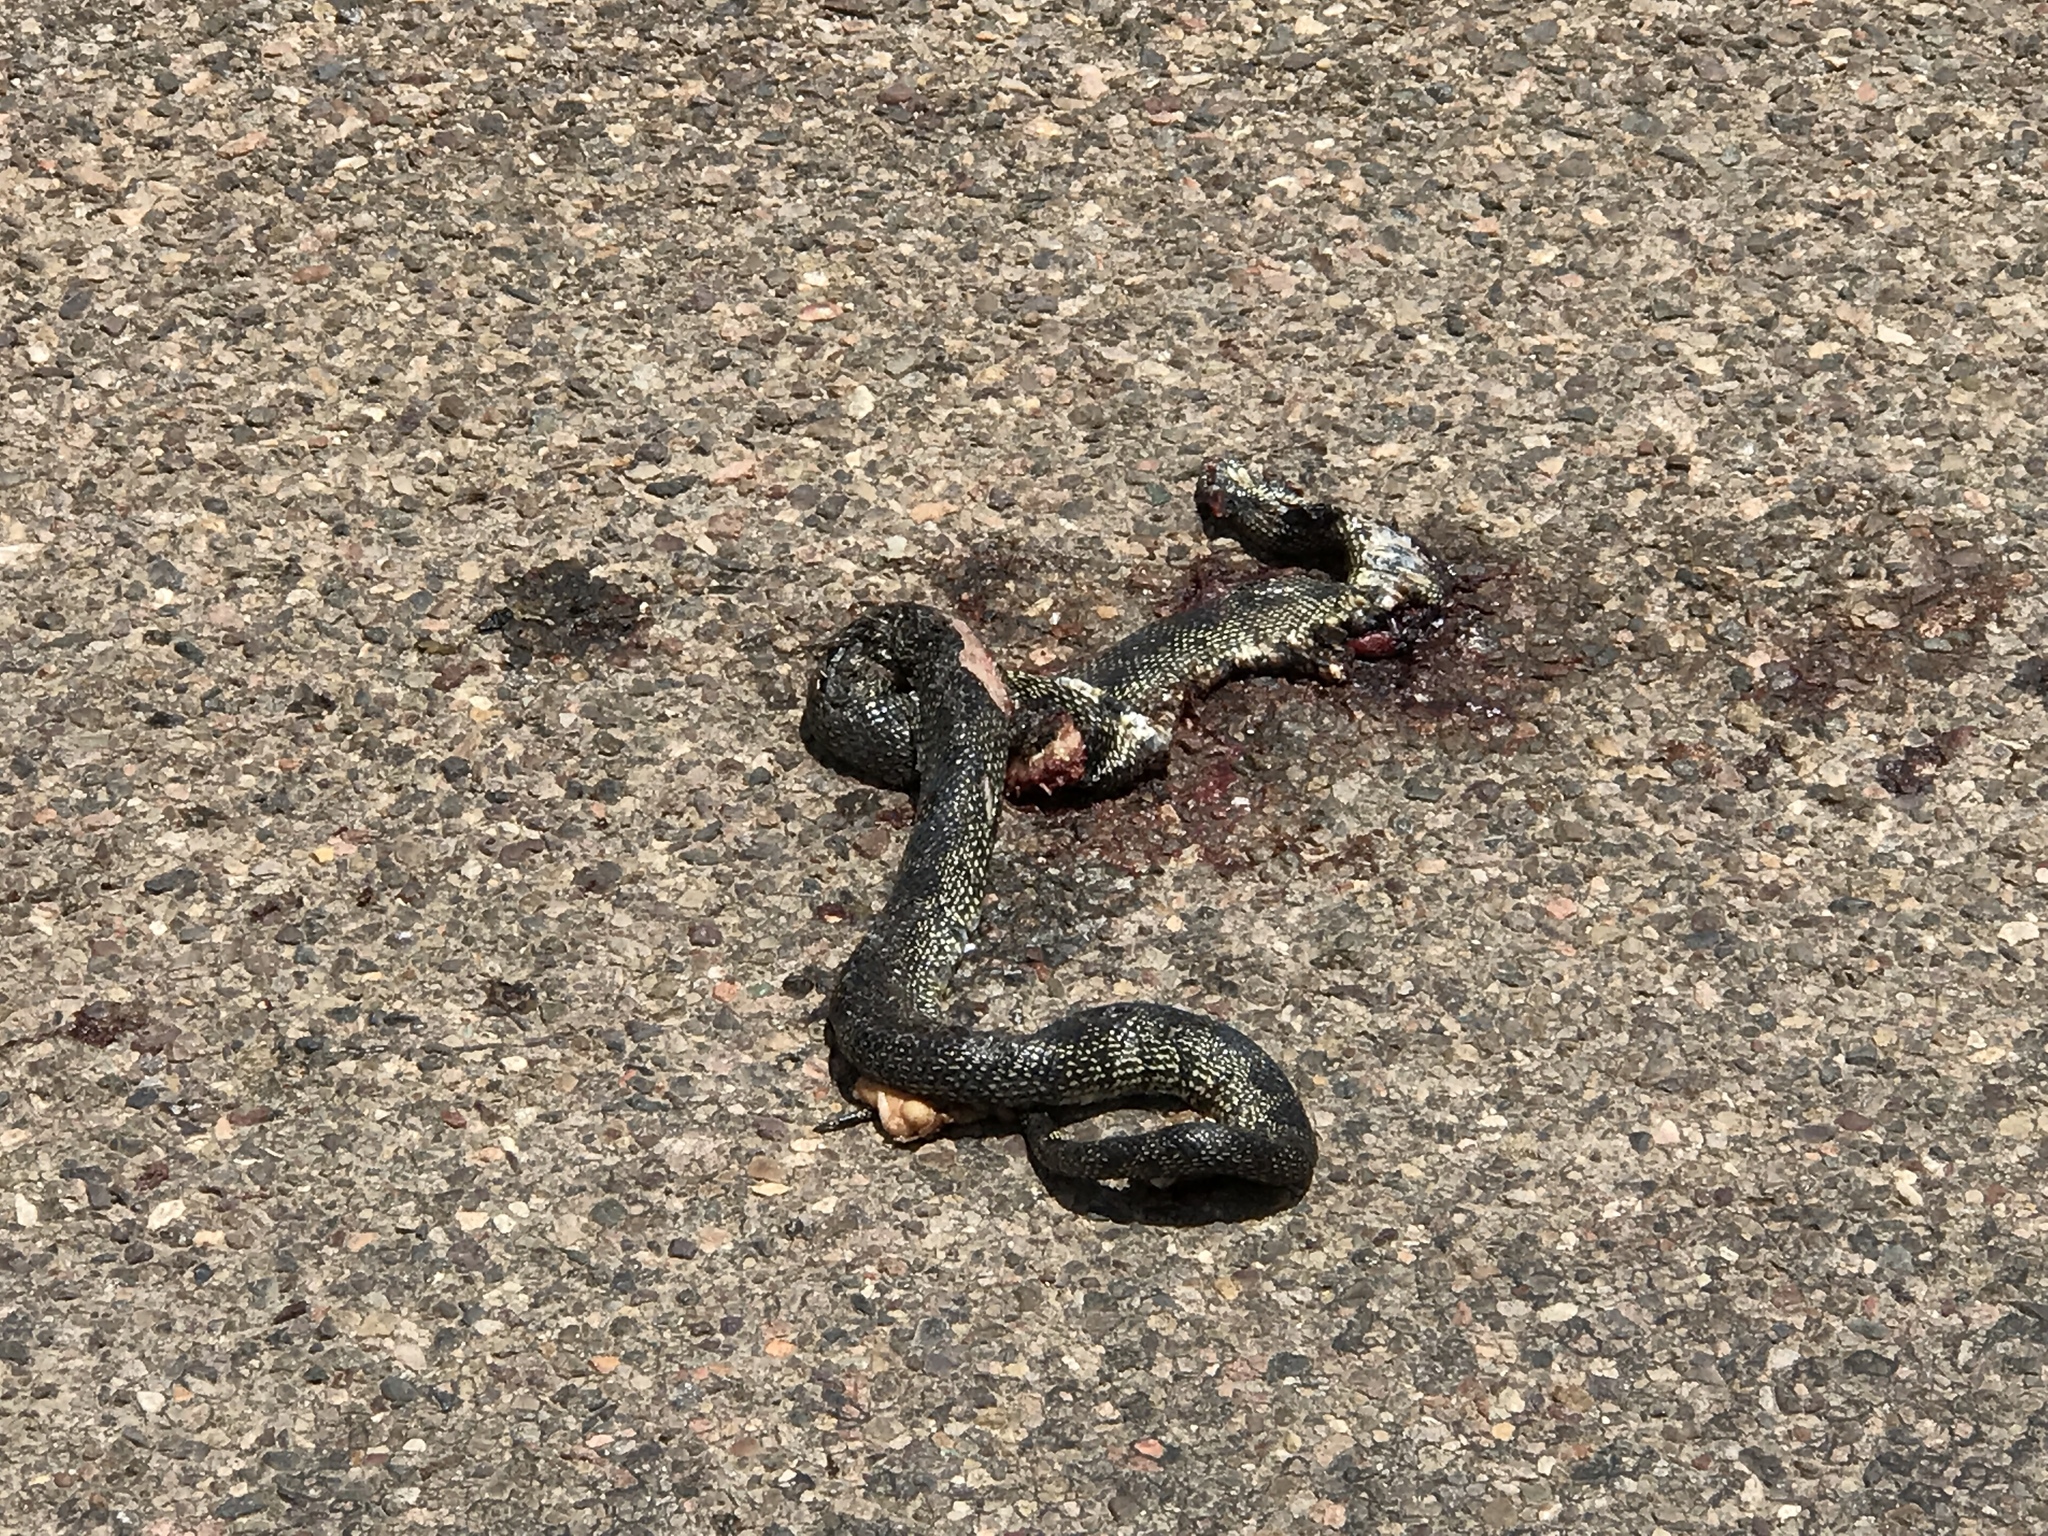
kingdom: Animalia
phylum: Chordata
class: Squamata
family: Colubridae
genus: Lampropeltis
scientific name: Lampropeltis splendida
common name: Desert kingsnake
